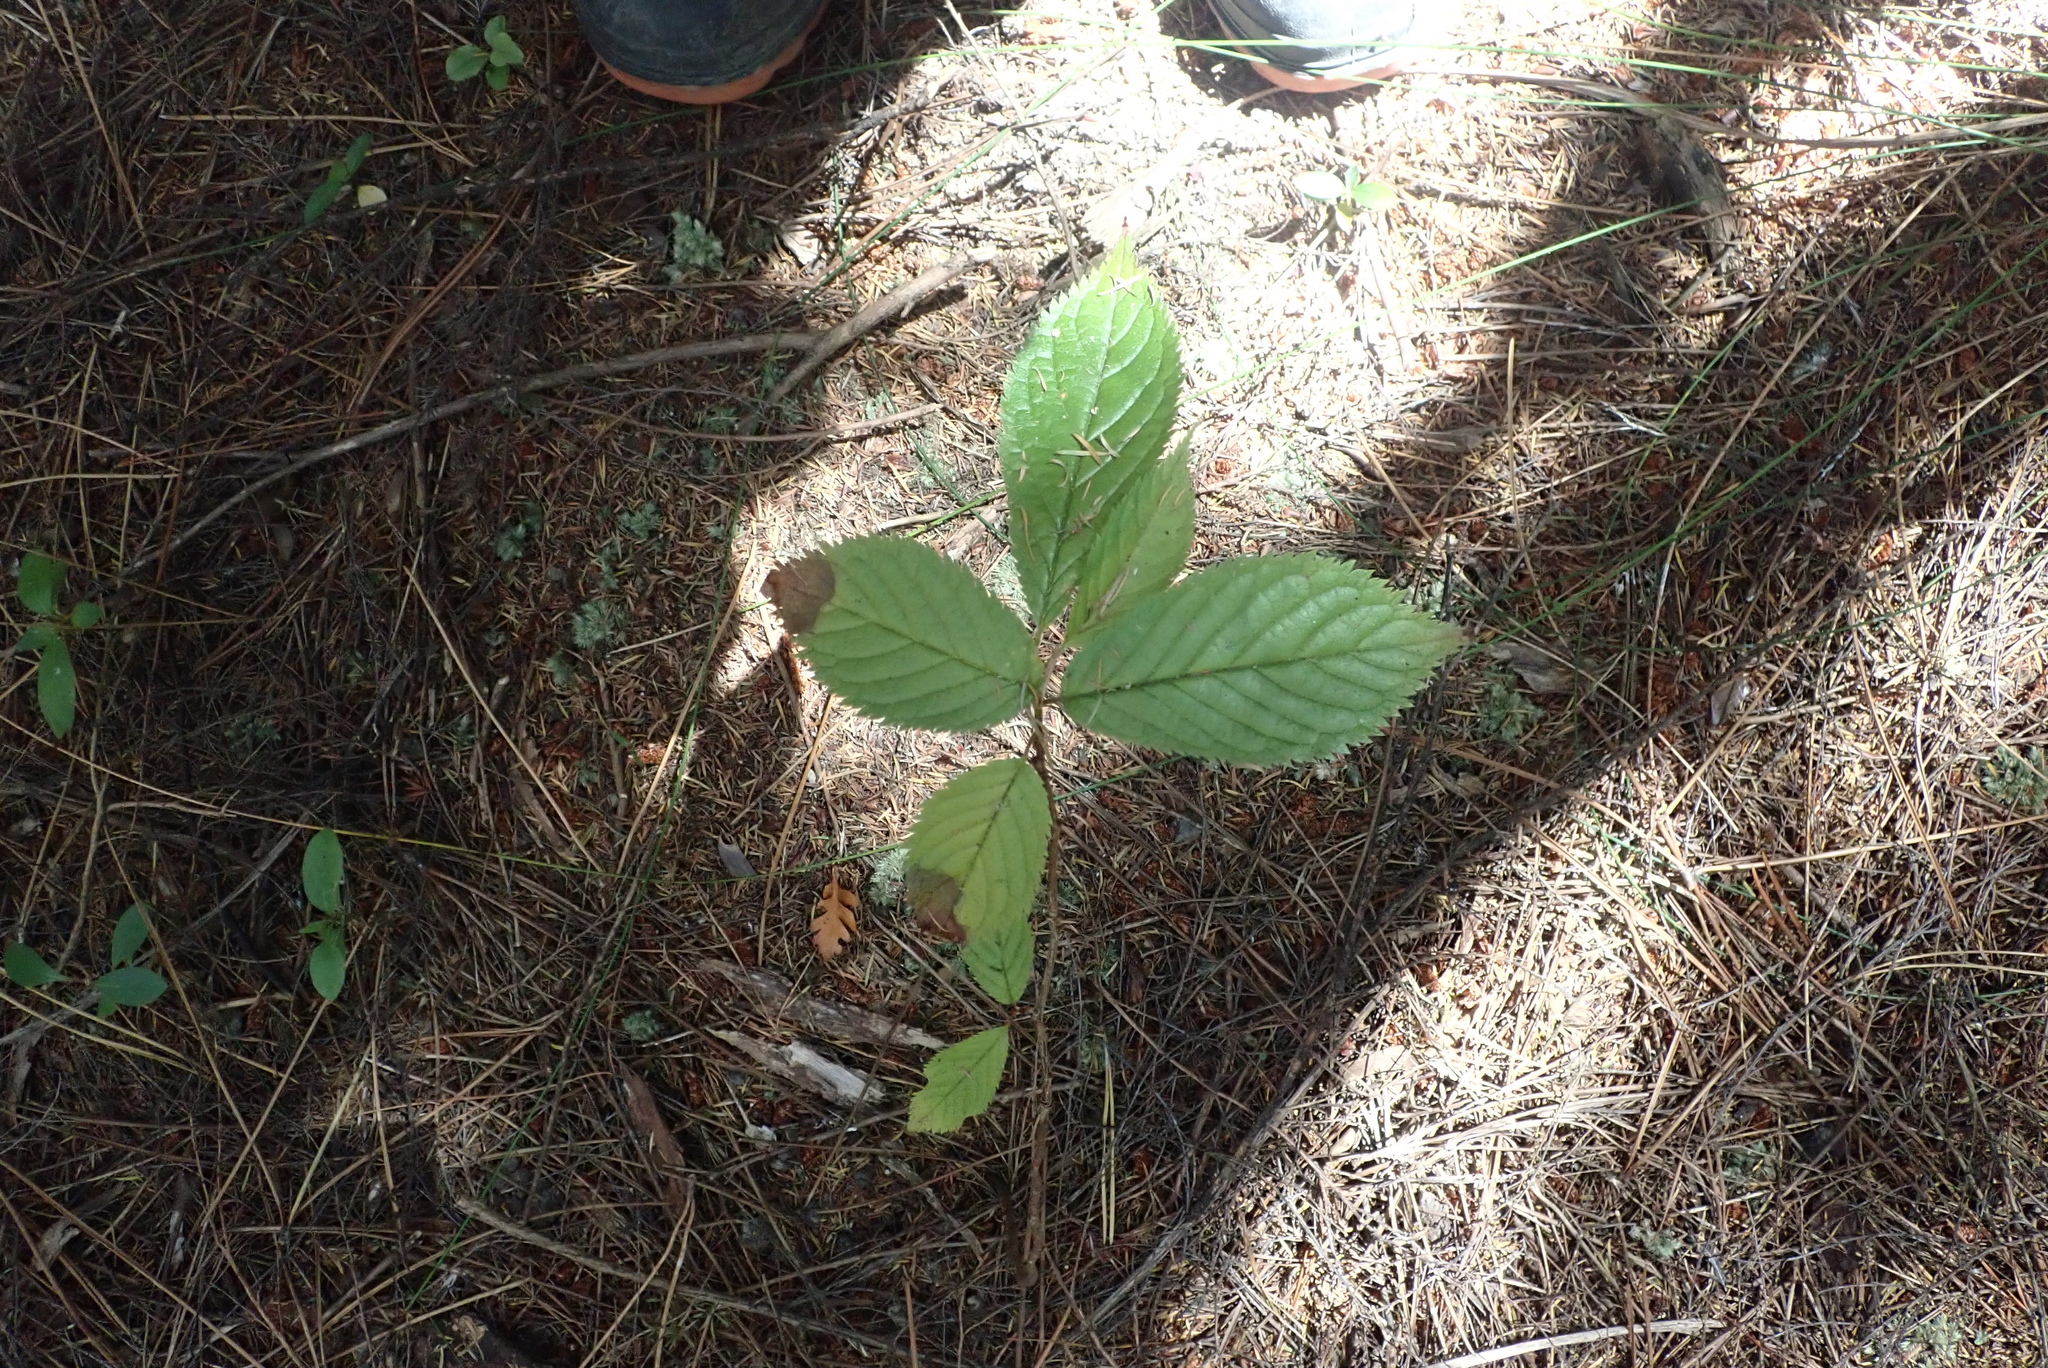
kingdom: Plantae
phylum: Tracheophyta
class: Magnoliopsida
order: Rosales
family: Rosaceae
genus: Prunus
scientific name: Prunus serrulata
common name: Japanese cherry
